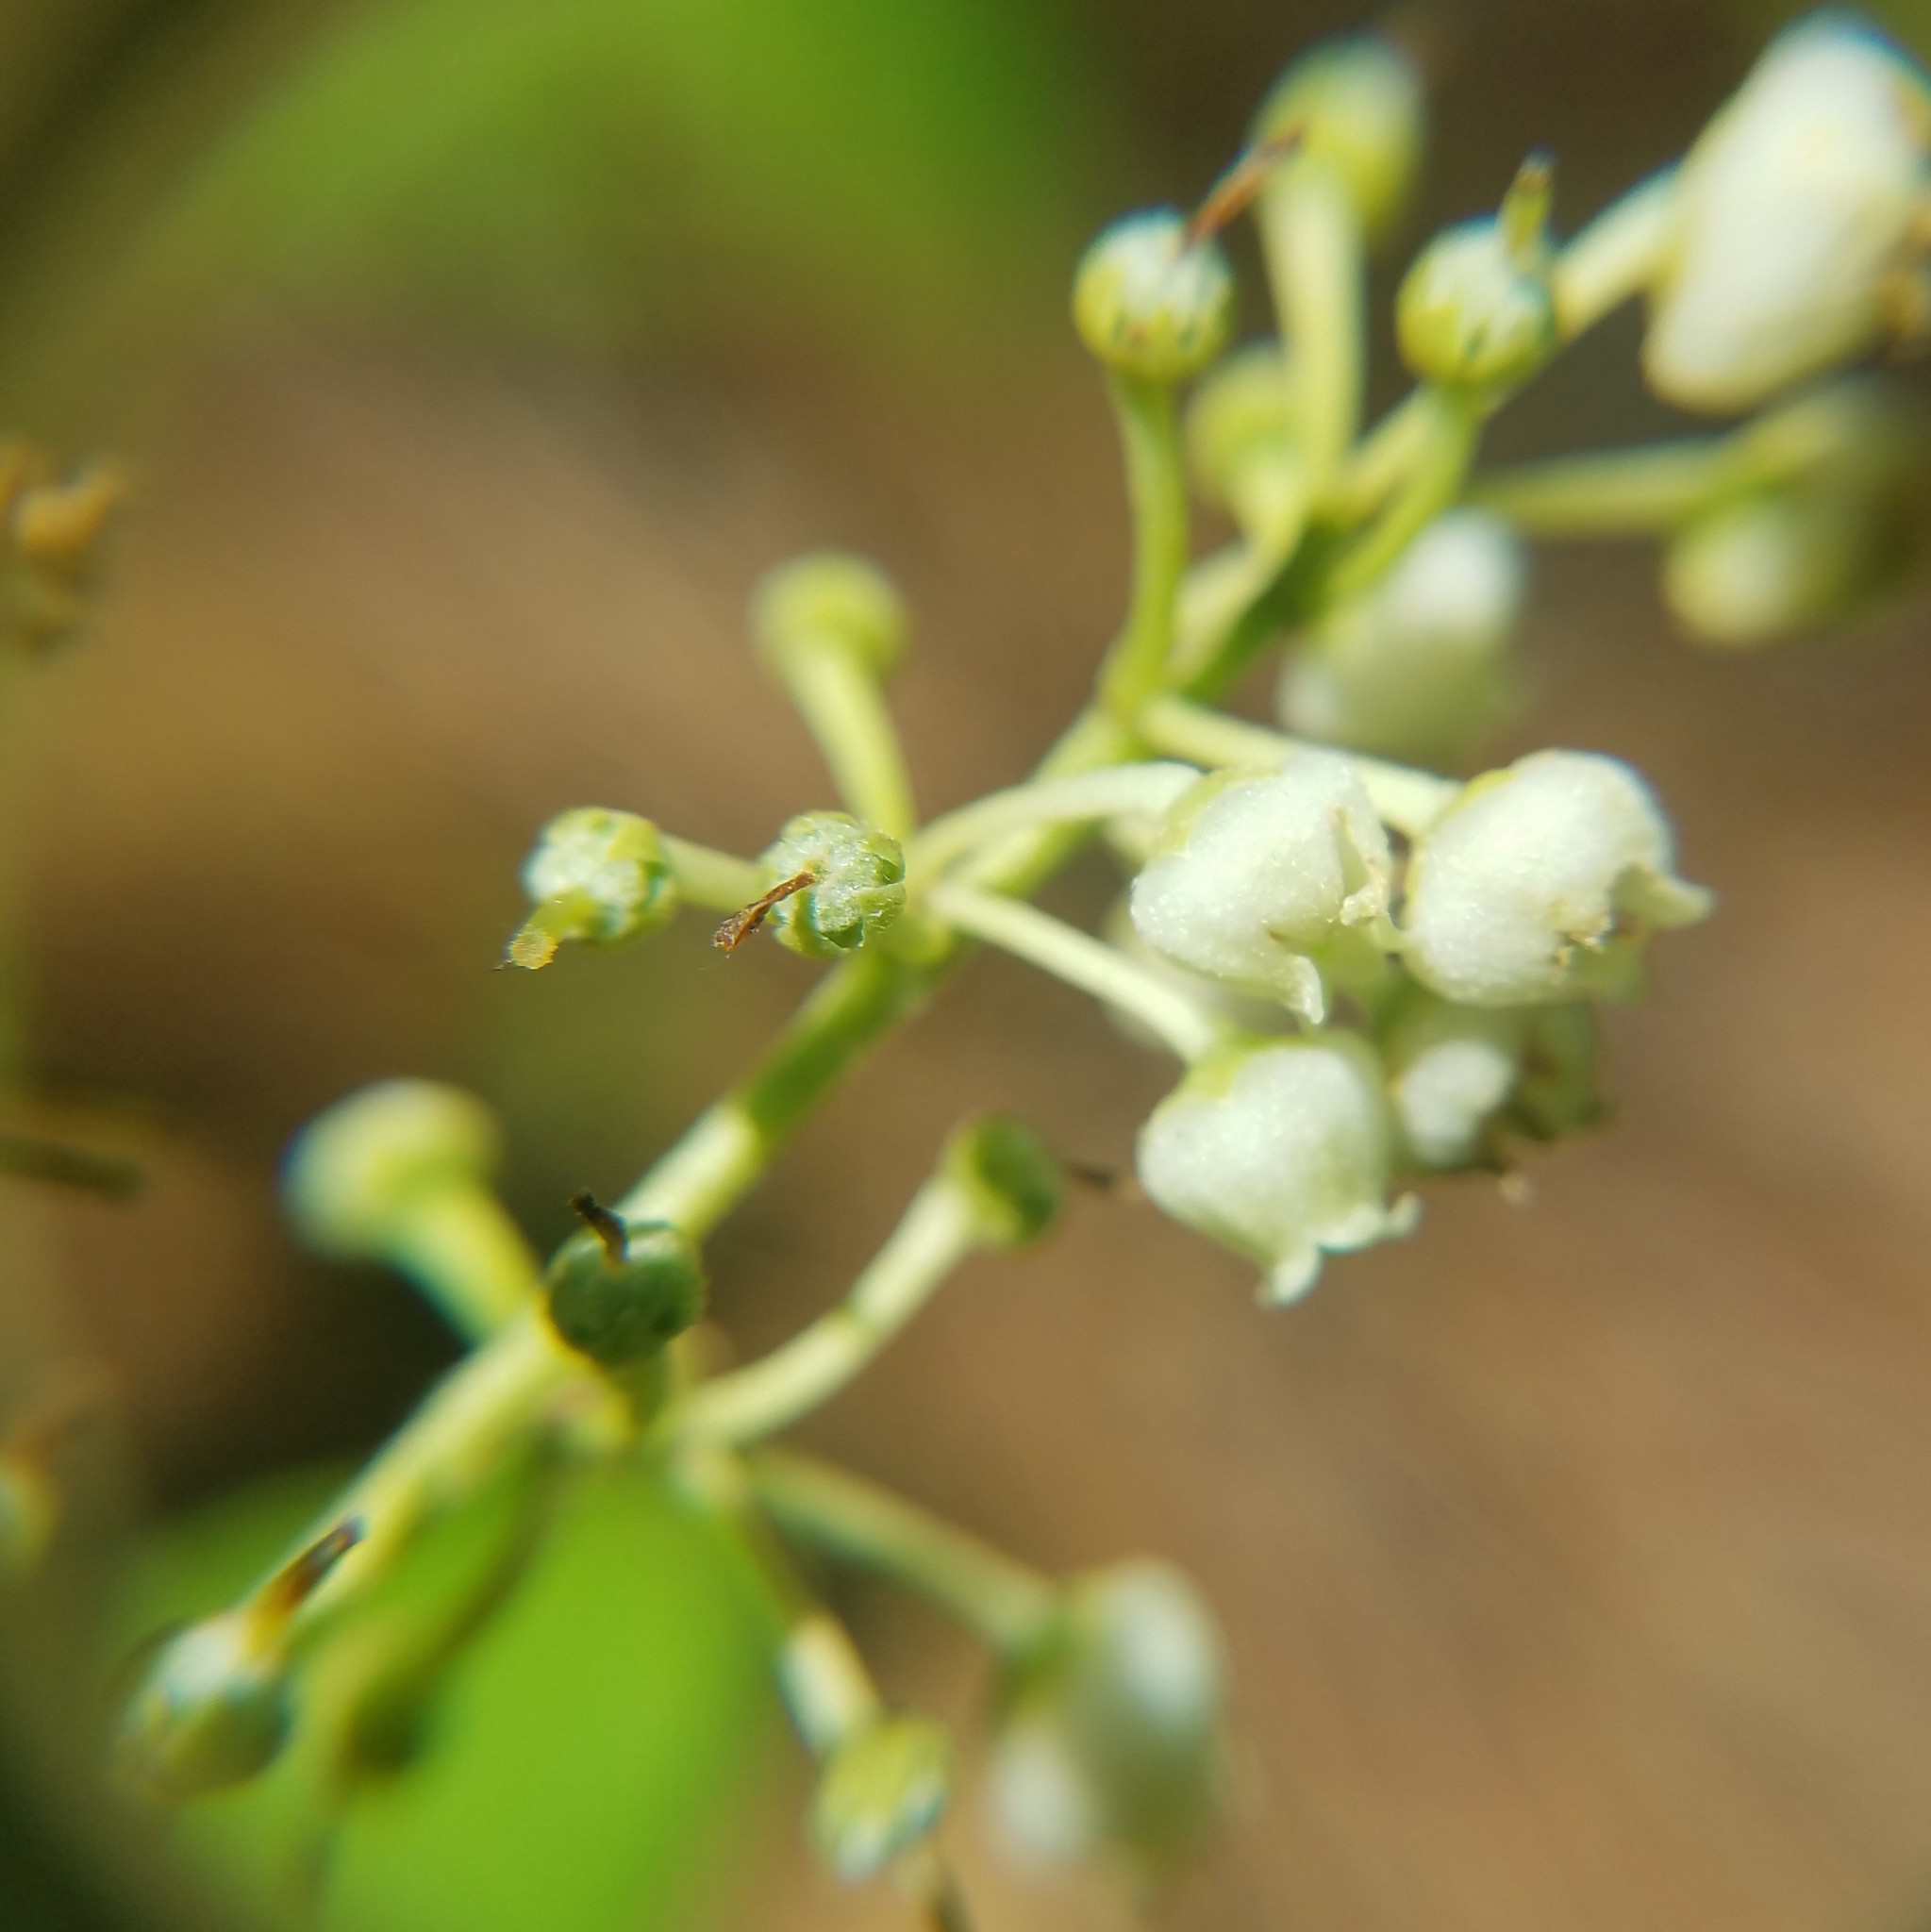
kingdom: Plantae
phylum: Tracheophyta
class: Magnoliopsida
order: Ericales
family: Ericaceae
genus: Lyonia
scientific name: Lyonia ligustrina
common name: Maleberry
